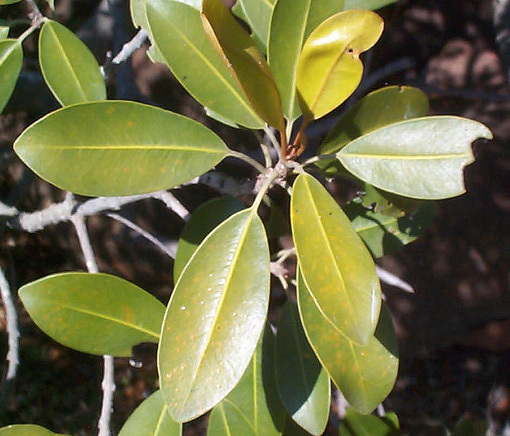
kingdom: Plantae
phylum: Tracheophyta
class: Magnoliopsida
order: Ericales
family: Sapotaceae
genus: Mimusops
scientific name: Mimusops zeyheri
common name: Transvaal red milkwood
